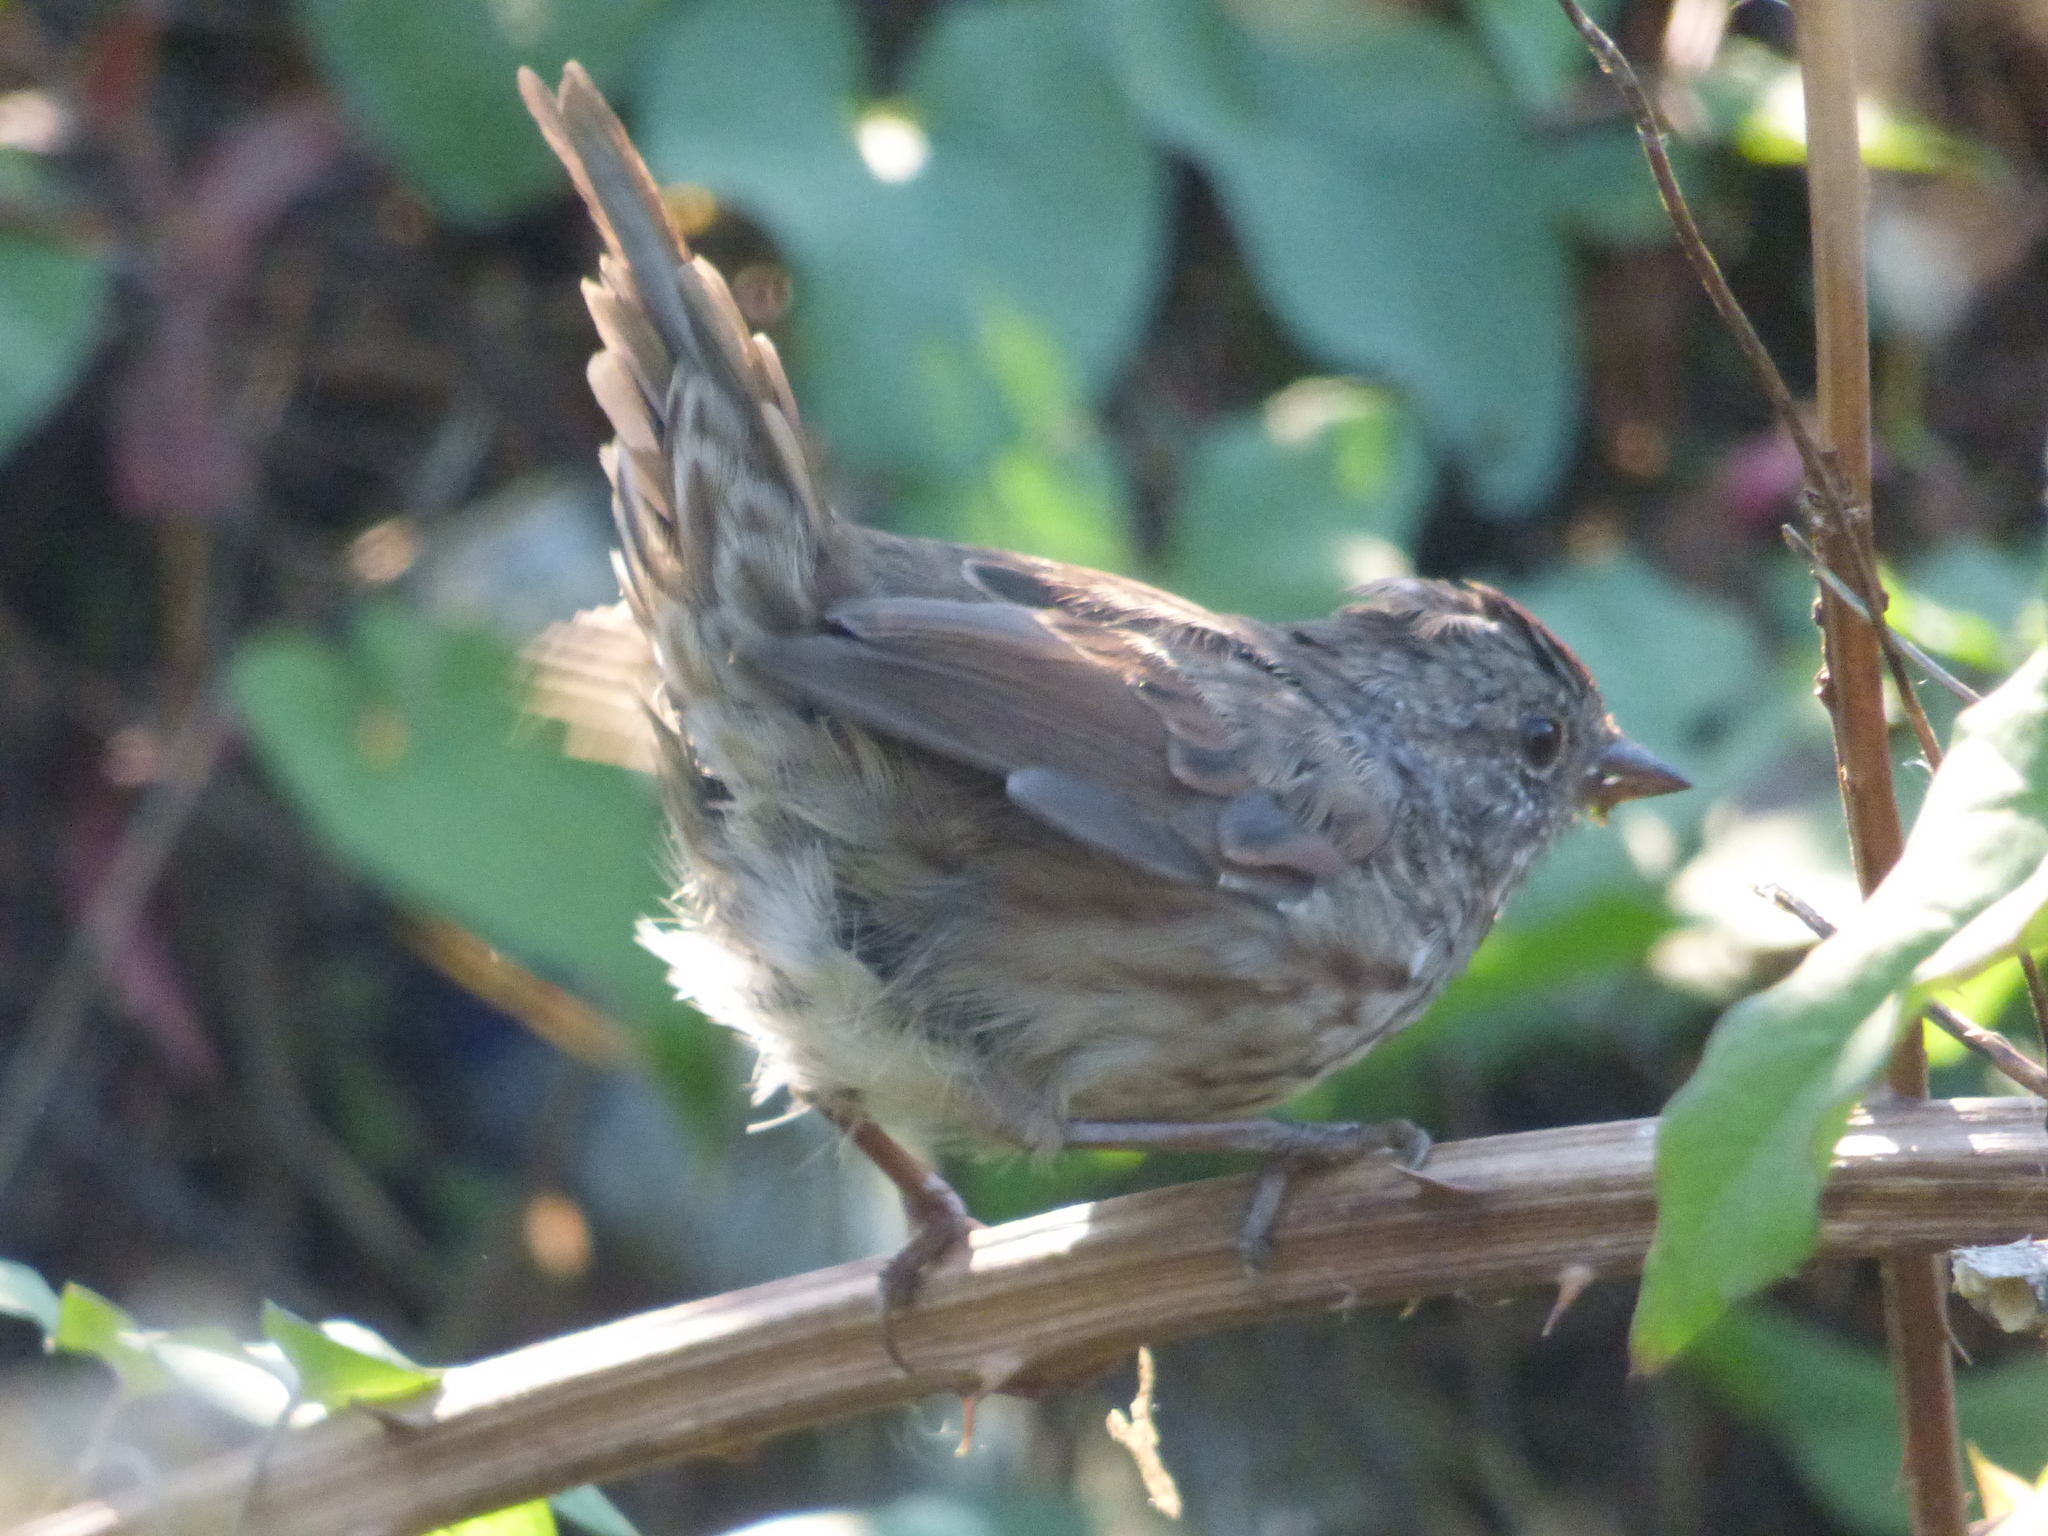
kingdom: Animalia
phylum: Chordata
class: Aves
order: Passeriformes
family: Passerellidae
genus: Melospiza
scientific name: Melospiza melodia
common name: Song sparrow
